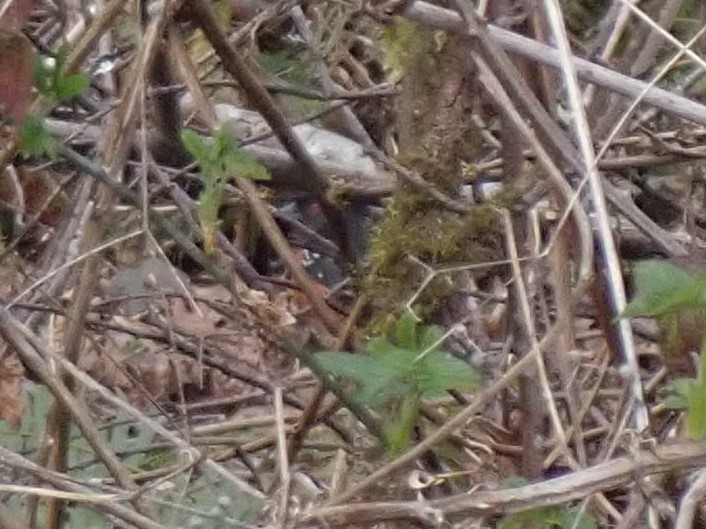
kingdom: Animalia
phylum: Chordata
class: Aves
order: Passeriformes
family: Passerellidae
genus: Pipilo
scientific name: Pipilo maculatus
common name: Spotted towhee
